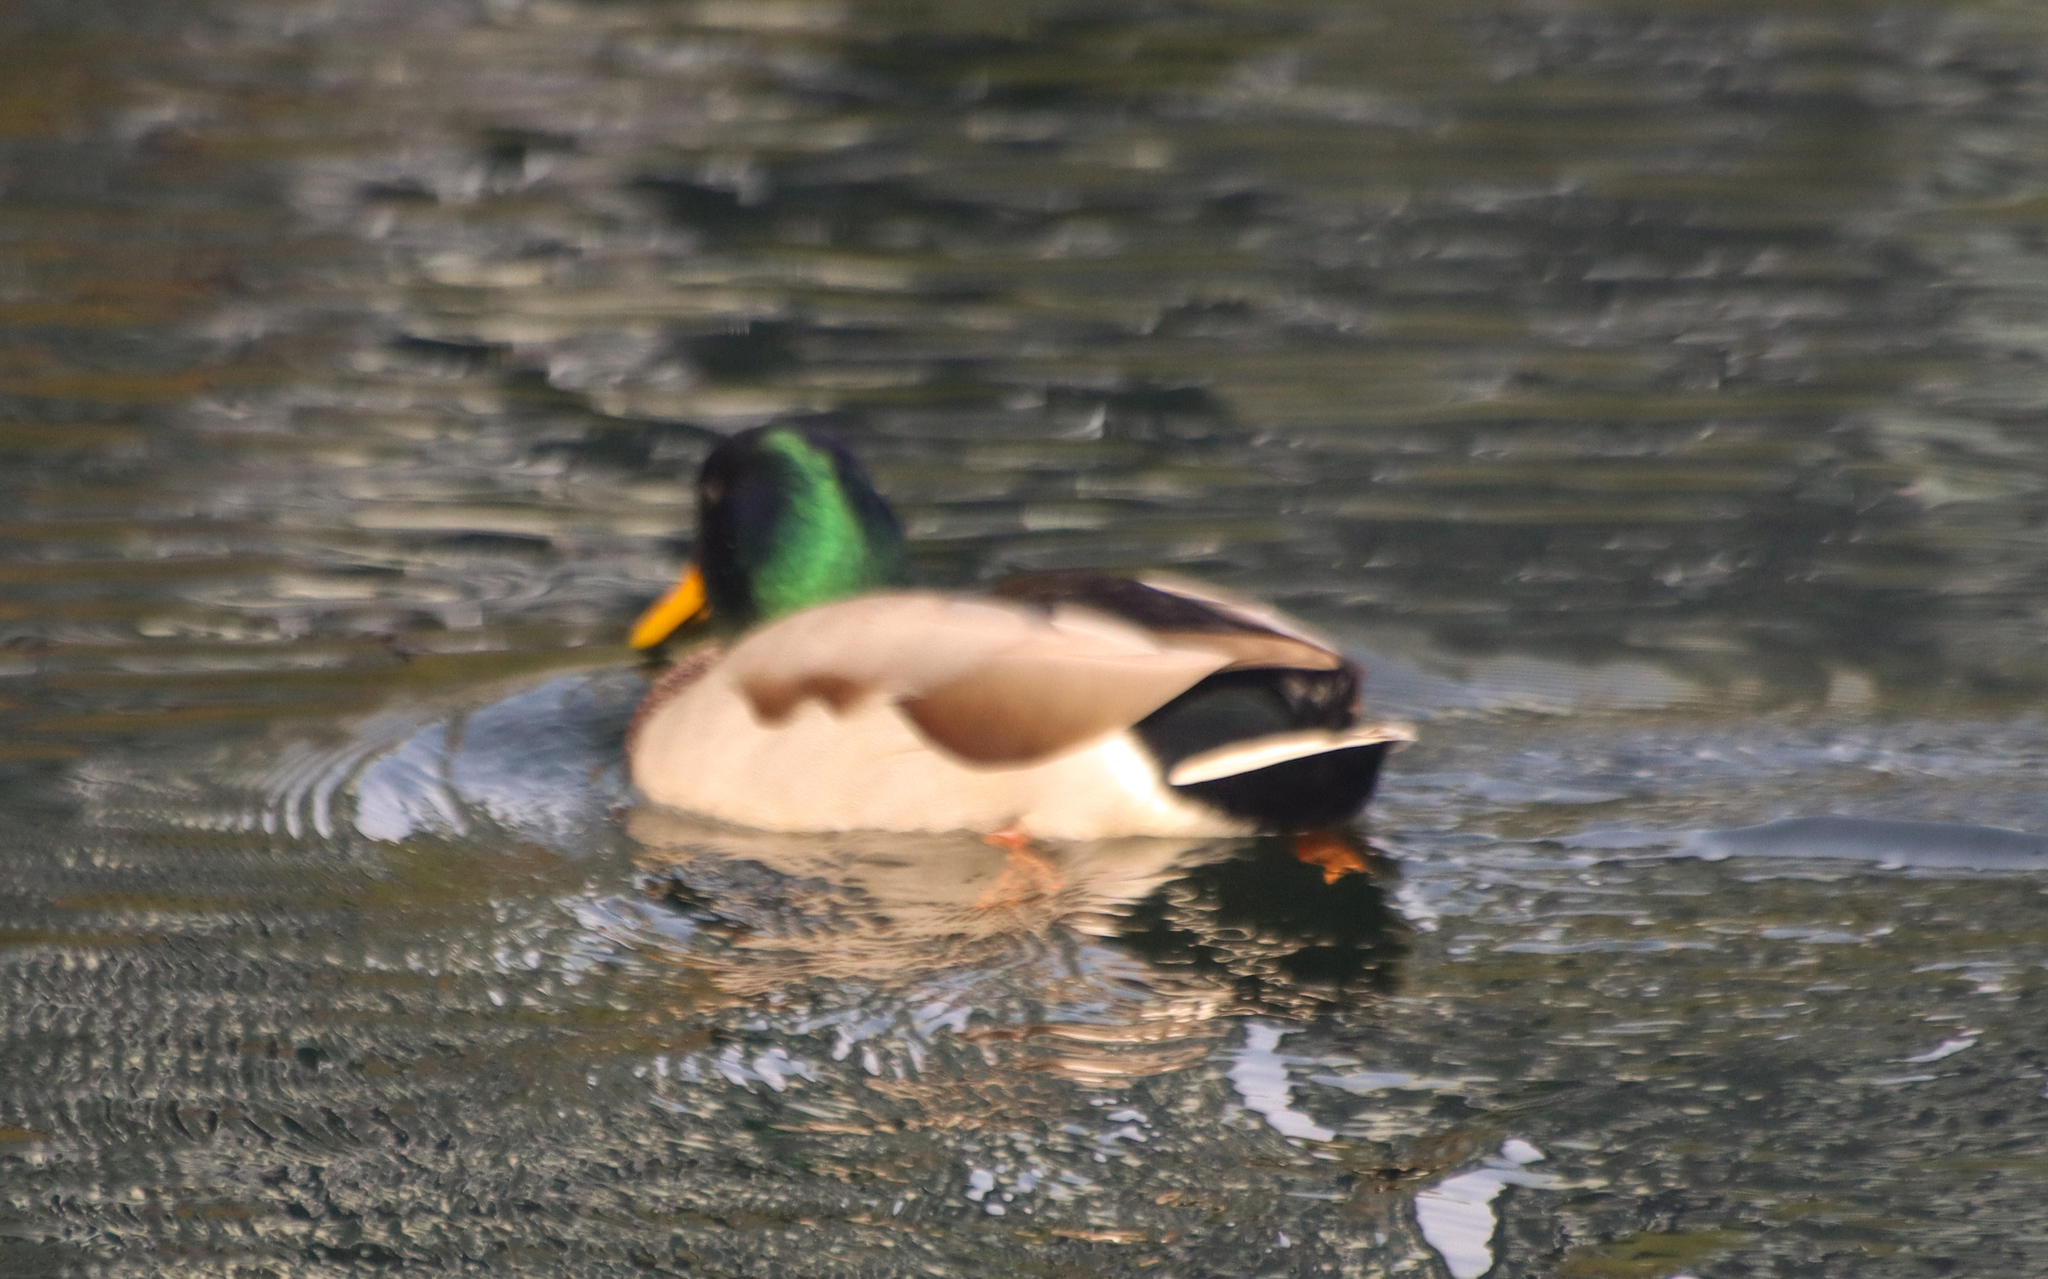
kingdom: Animalia
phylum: Chordata
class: Aves
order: Anseriformes
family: Anatidae
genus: Anas
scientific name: Anas platyrhynchos
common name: Mallard
